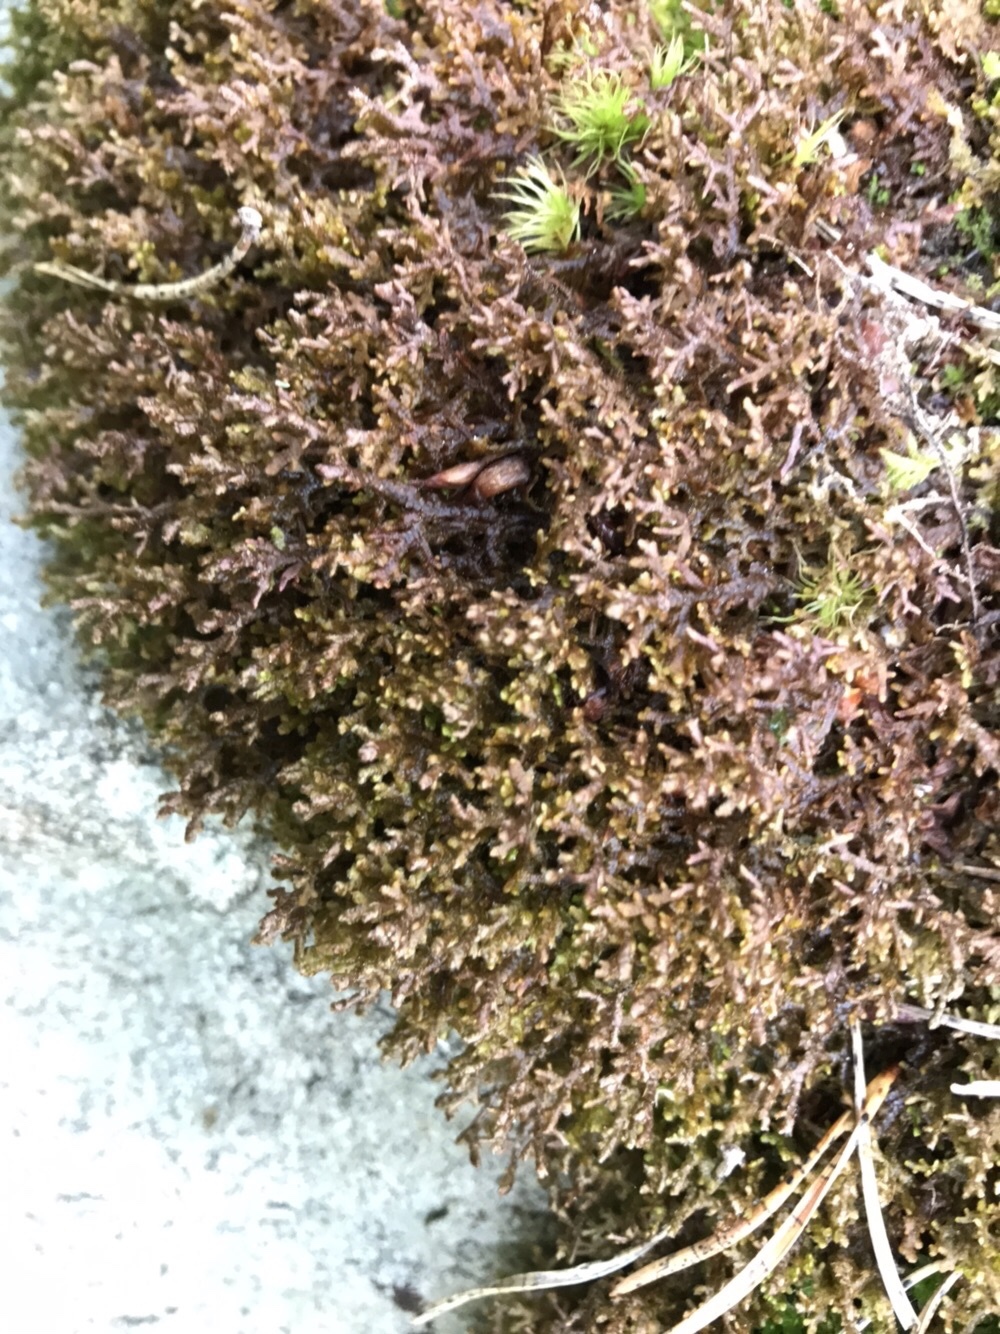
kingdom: Plantae
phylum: Marchantiophyta
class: Jungermanniopsida
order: Porellales
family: Frullaniaceae
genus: Frullania
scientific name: Frullania tamarisci
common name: Tamarisk scalewort
